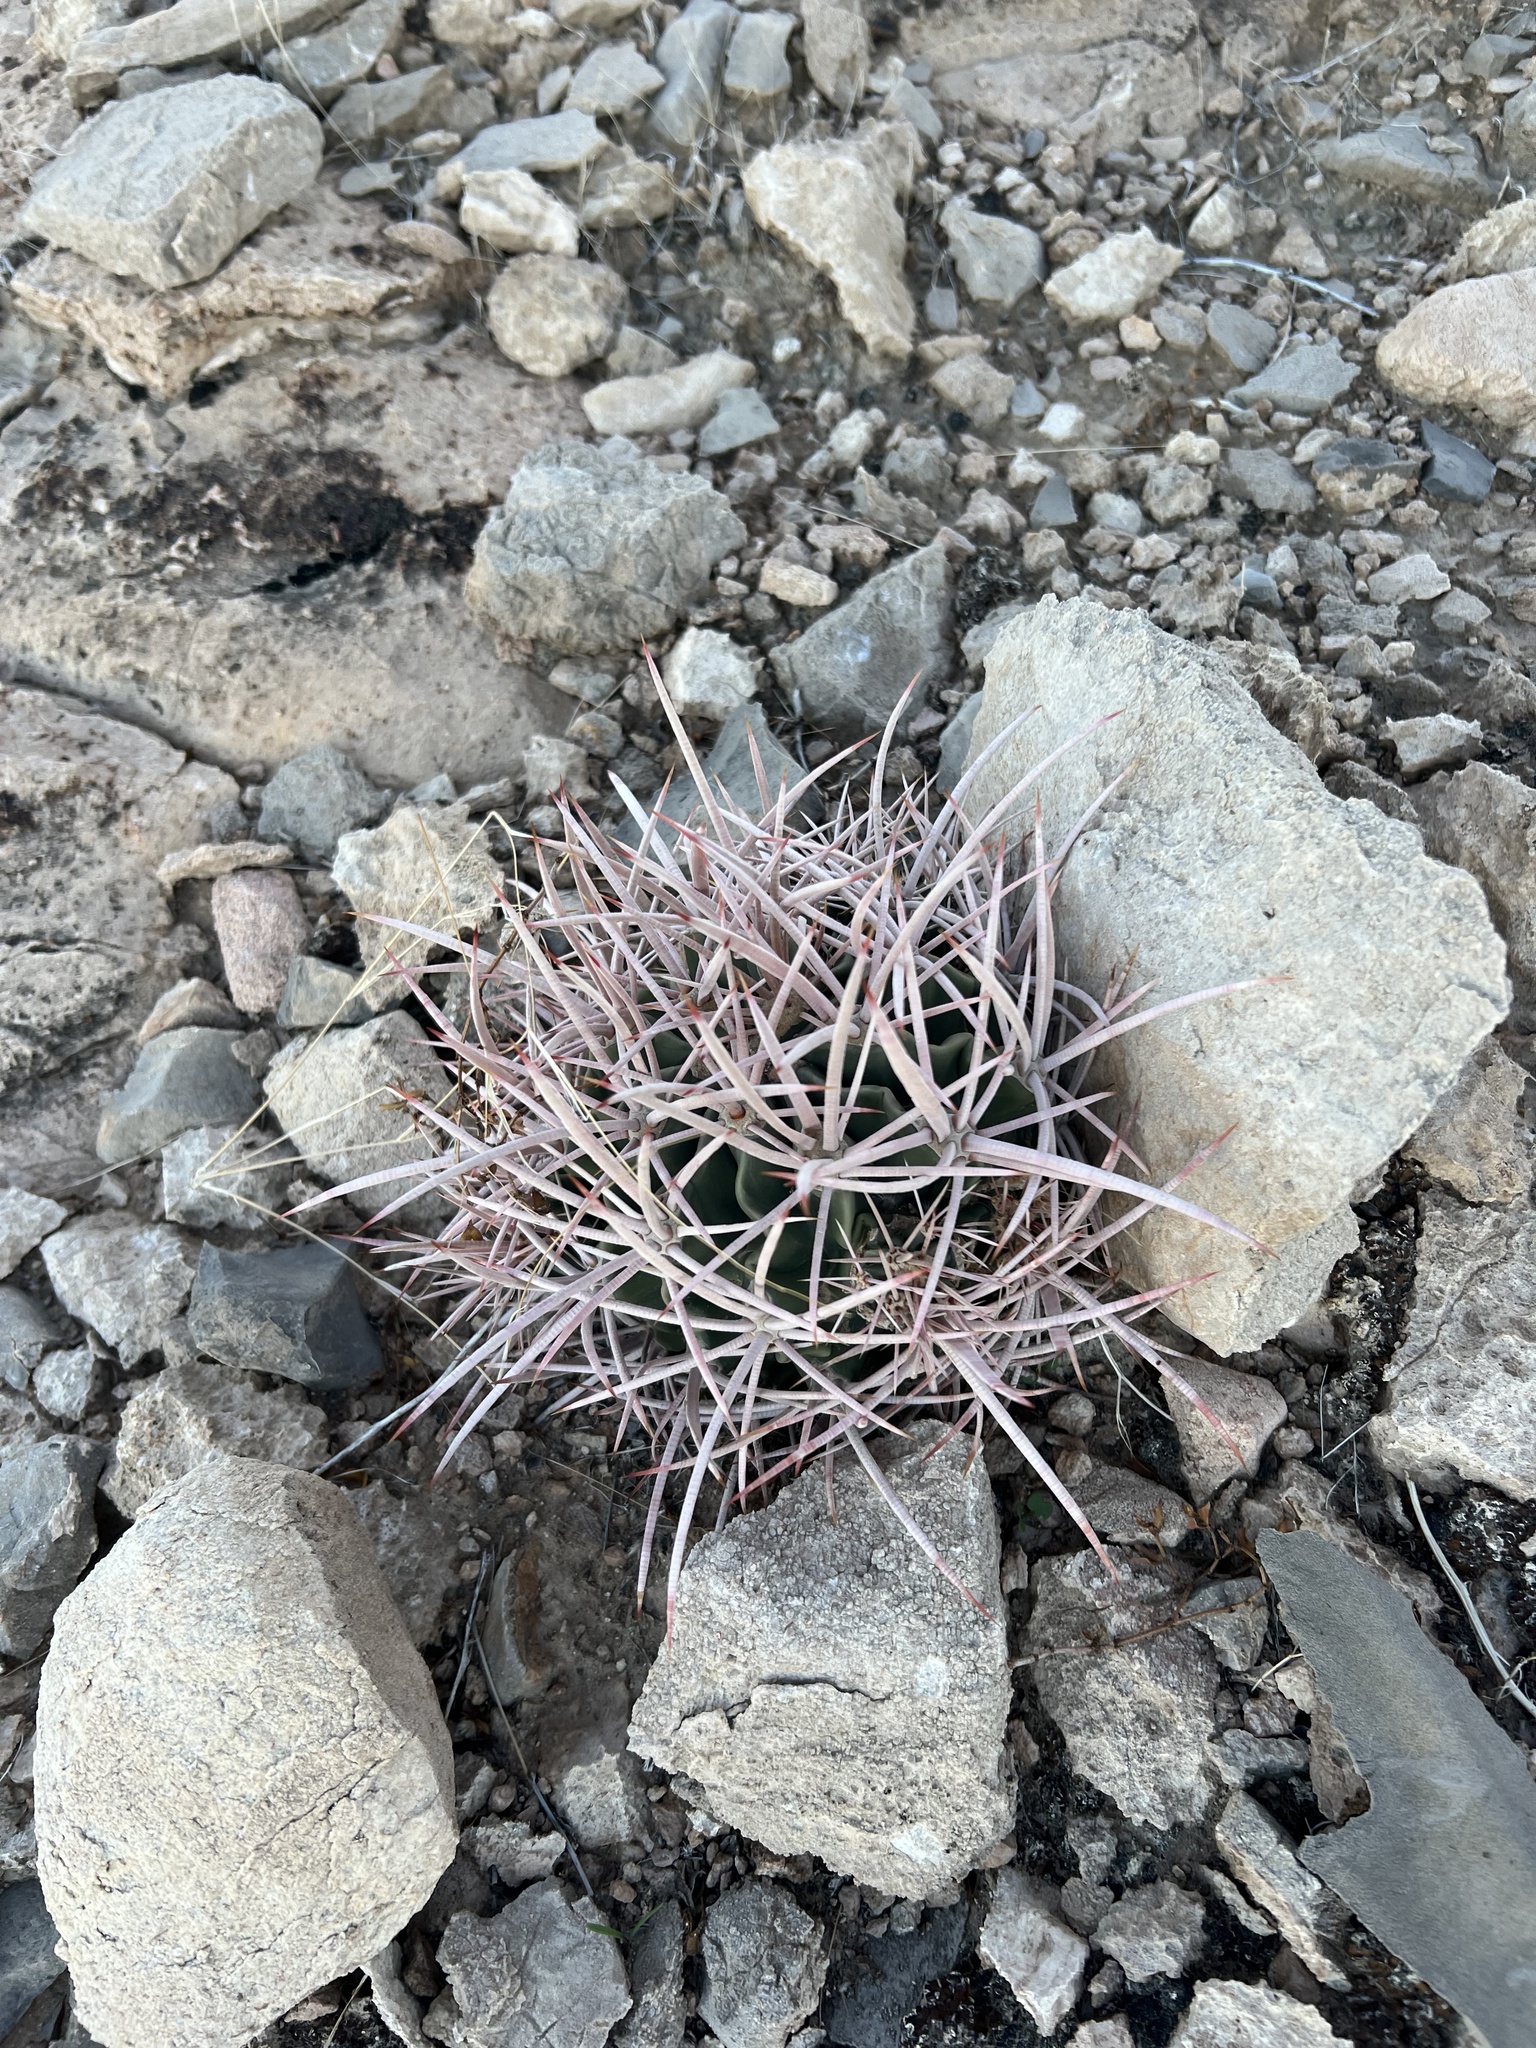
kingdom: Plantae
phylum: Tracheophyta
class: Magnoliopsida
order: Caryophyllales
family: Cactaceae
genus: Echinocactus
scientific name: Echinocactus polycephalus
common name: Cottontop cactus
